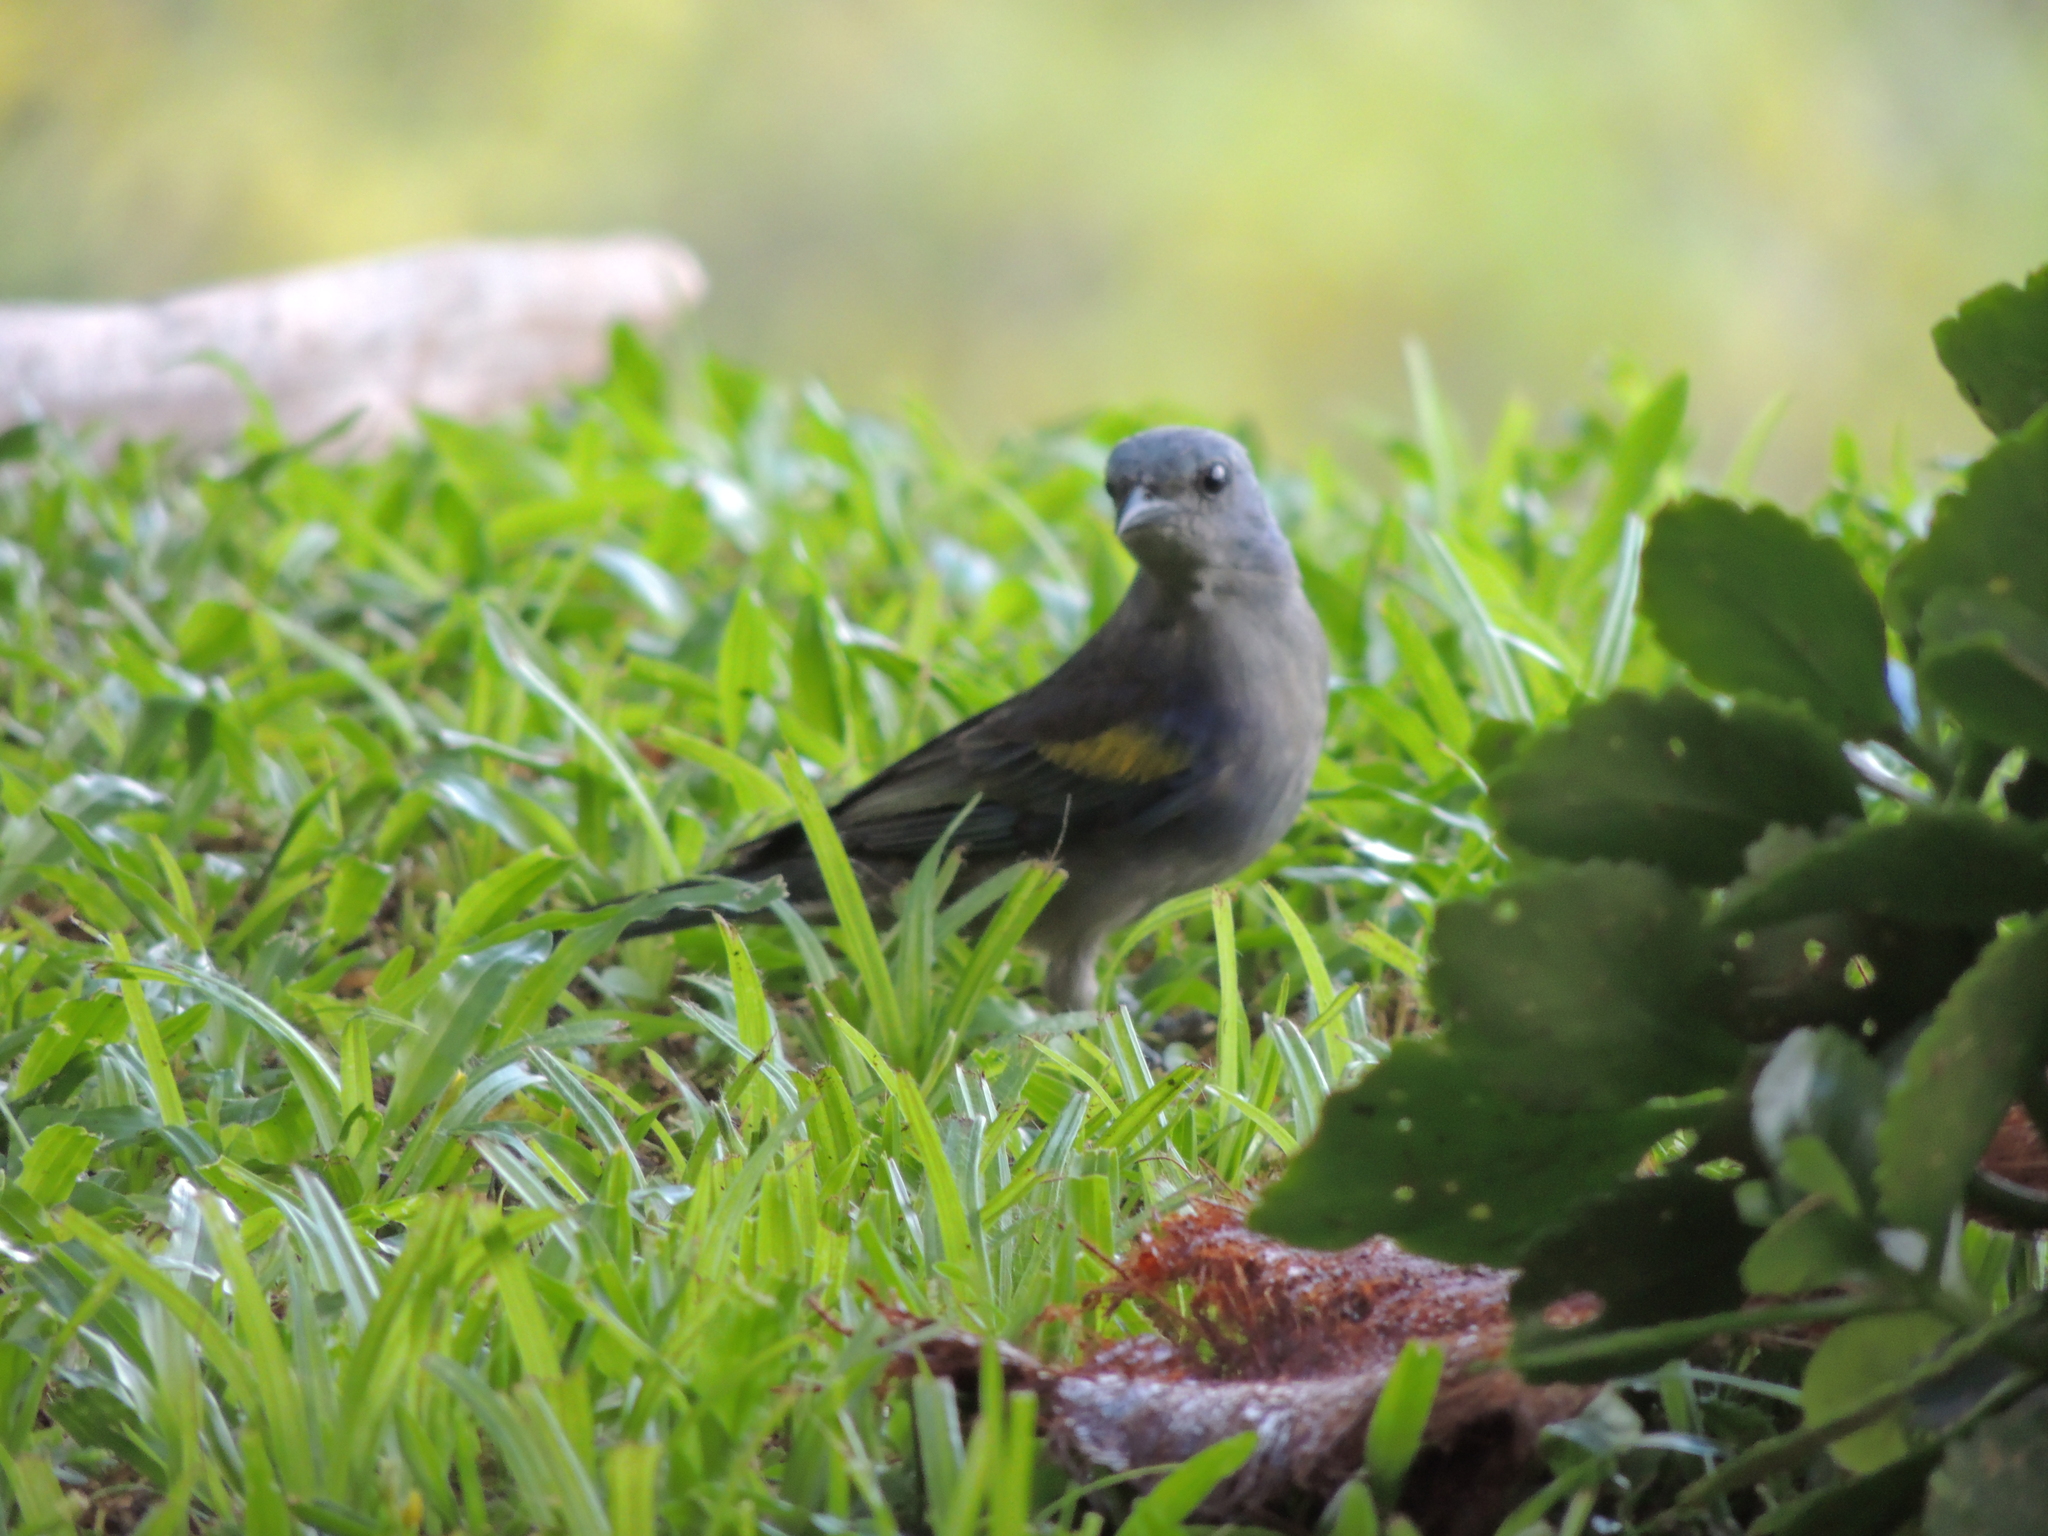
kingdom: Animalia
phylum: Chordata
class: Aves
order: Passeriformes
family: Thraupidae
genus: Thraupis
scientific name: Thraupis ornata
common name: Golden-chevroned tanager
